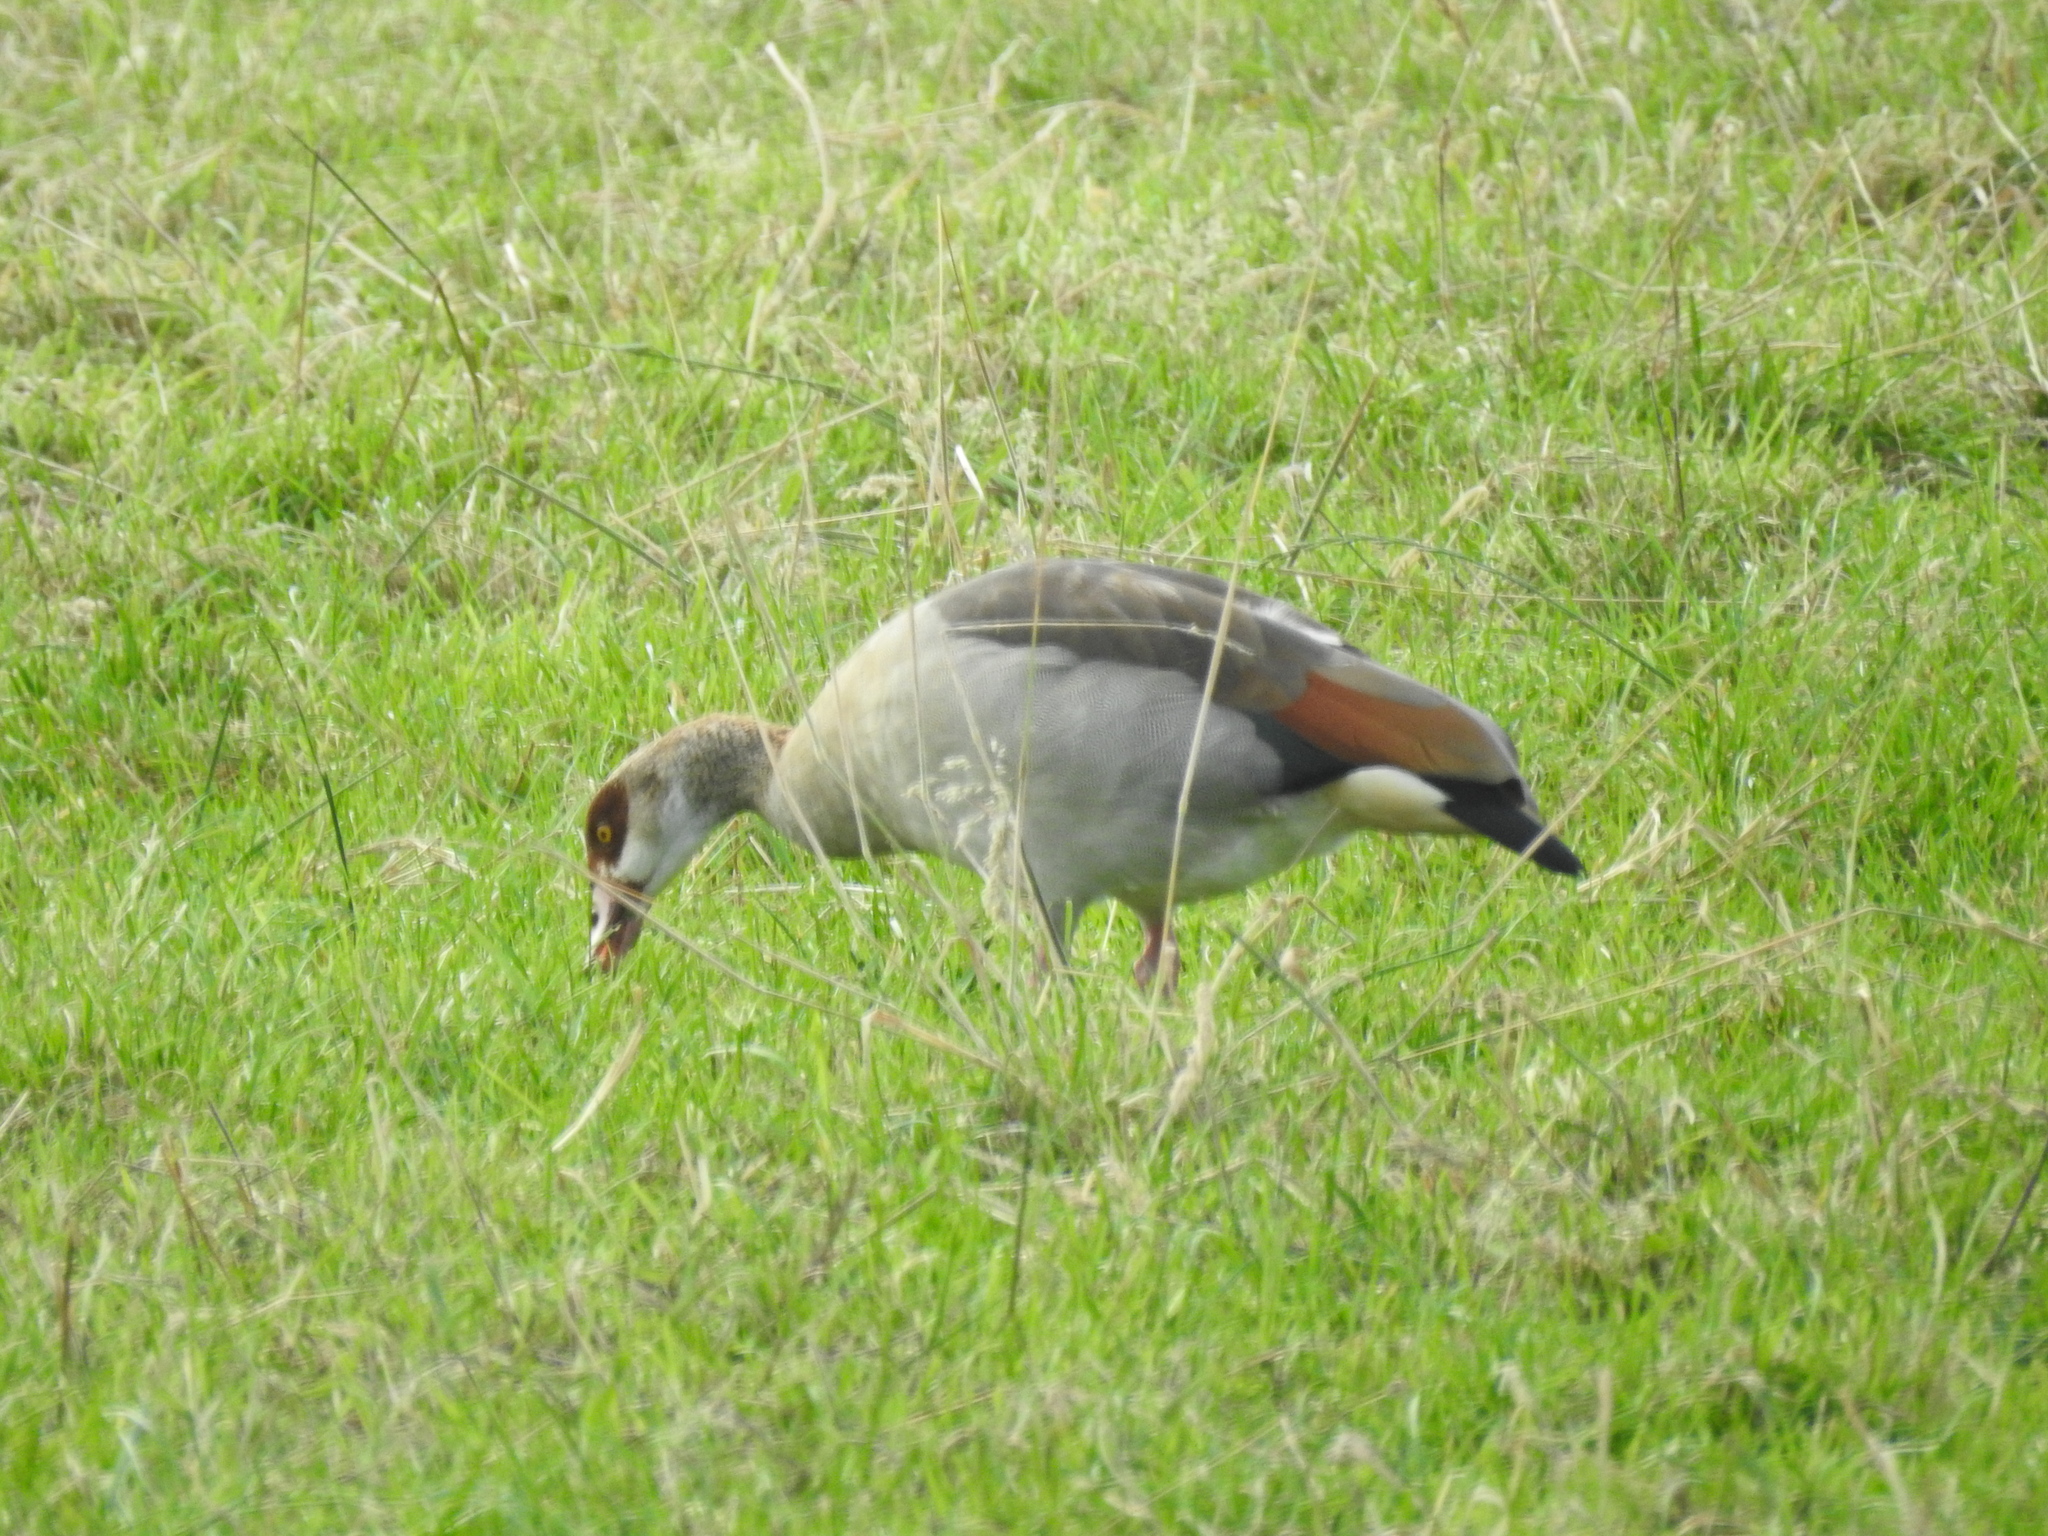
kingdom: Animalia
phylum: Chordata
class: Aves
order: Anseriformes
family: Anatidae
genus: Alopochen
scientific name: Alopochen aegyptiaca
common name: Egyptian goose
